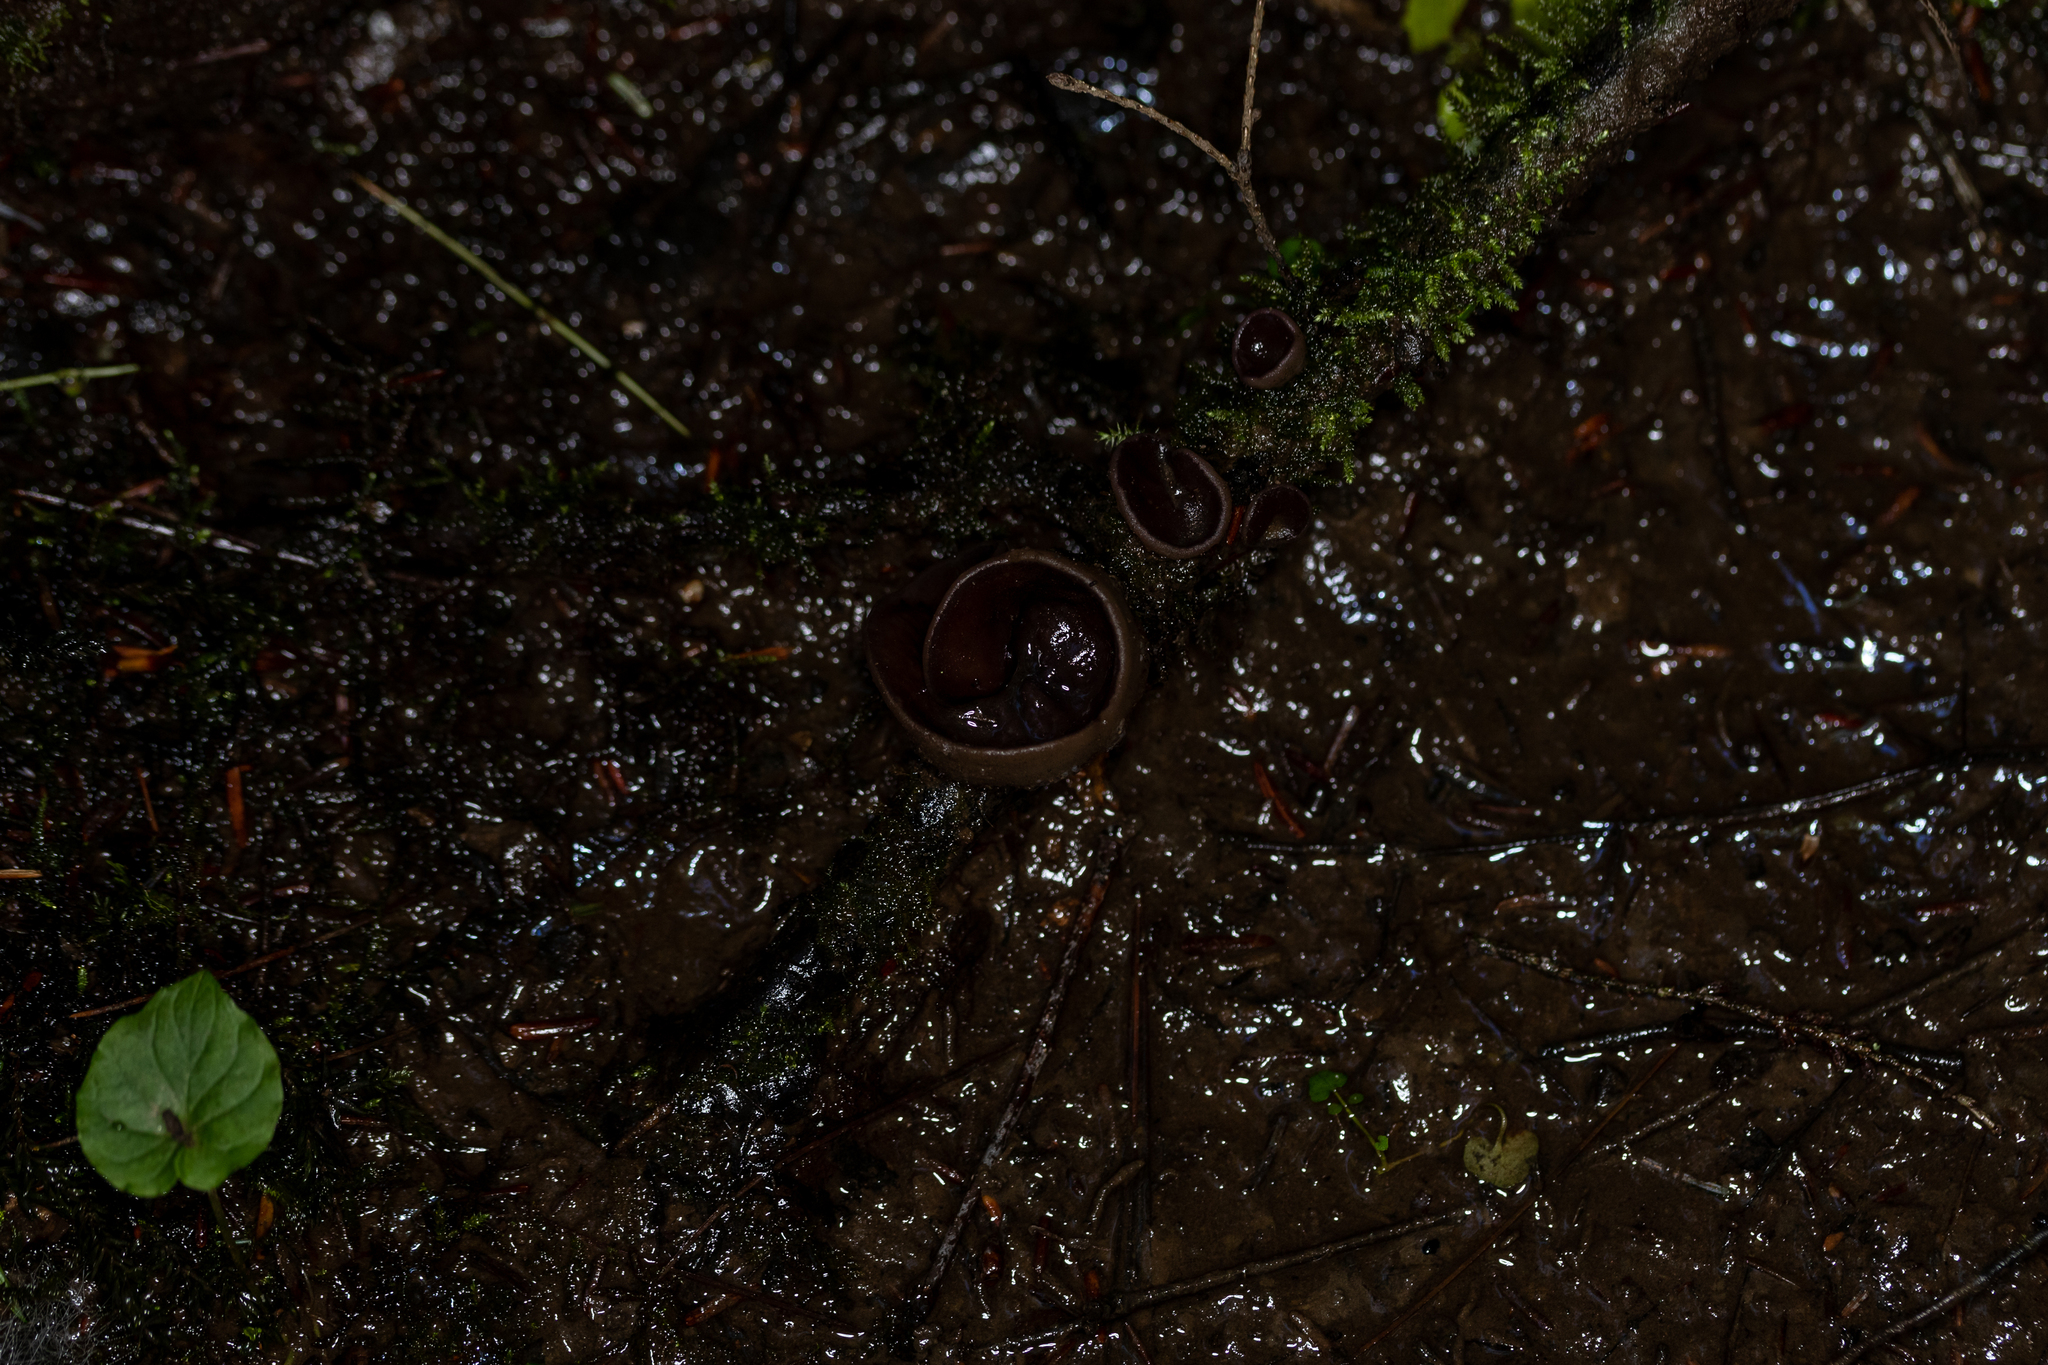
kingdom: Fungi
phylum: Ascomycota
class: Pezizomycetes
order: Pezizales
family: Pezizaceae
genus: Pachyella
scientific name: Pachyella clypeata
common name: Copper penny fungus
